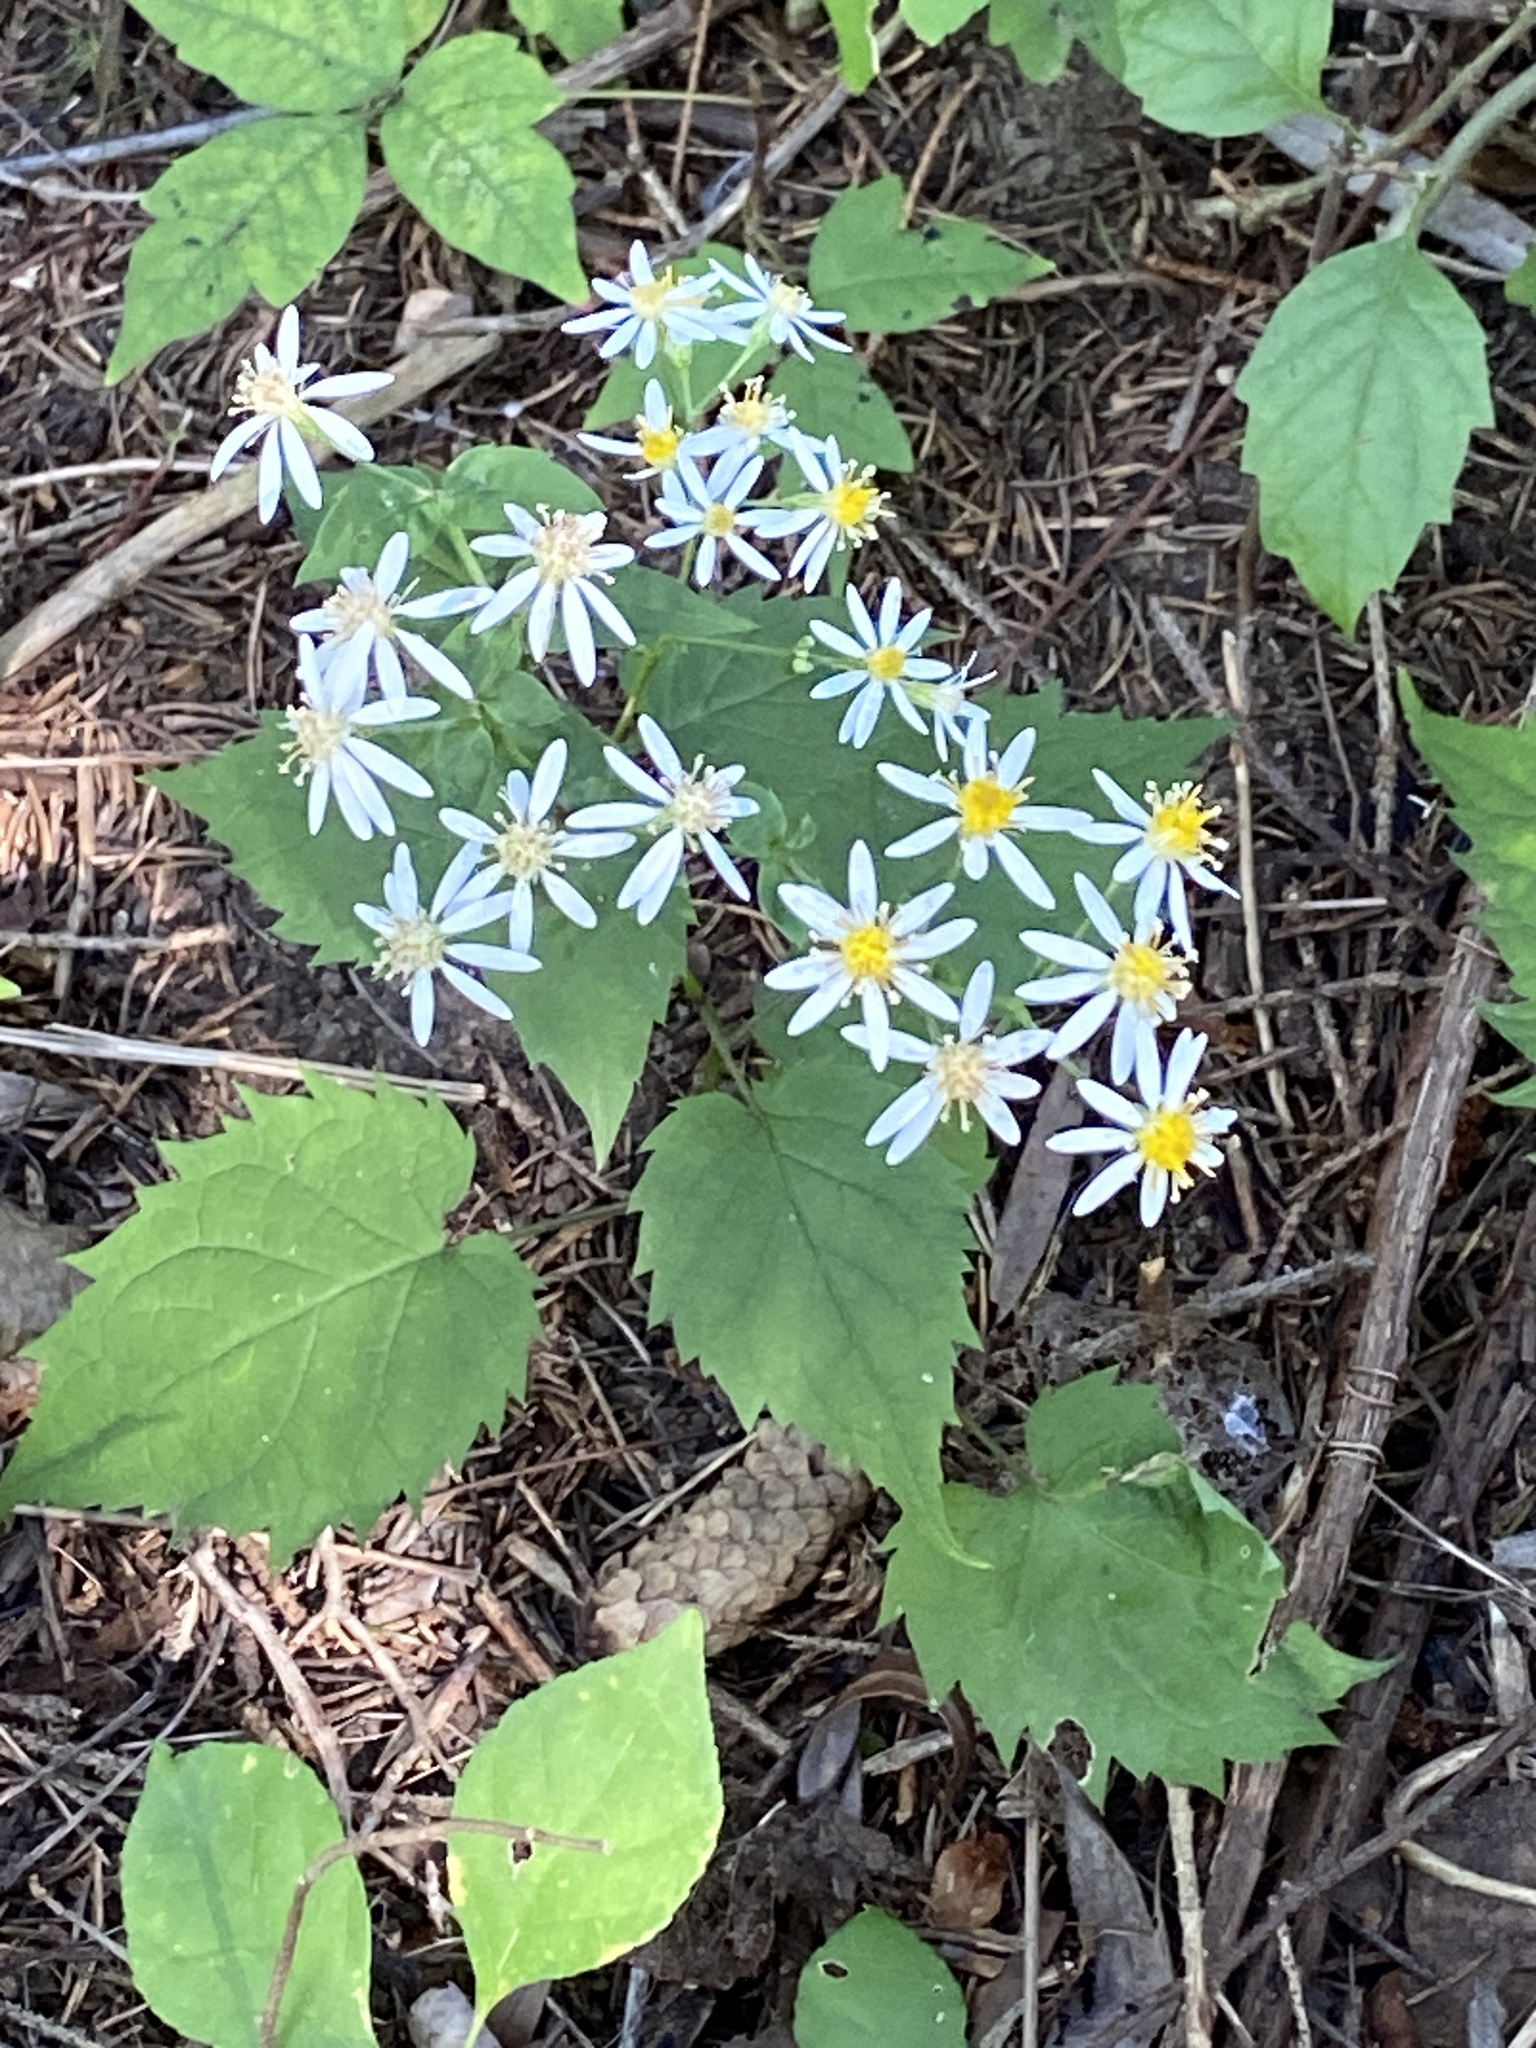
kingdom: Plantae
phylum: Tracheophyta
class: Magnoliopsida
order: Asterales
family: Asteraceae
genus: Eurybia
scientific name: Eurybia divaricata
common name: White wood aster
